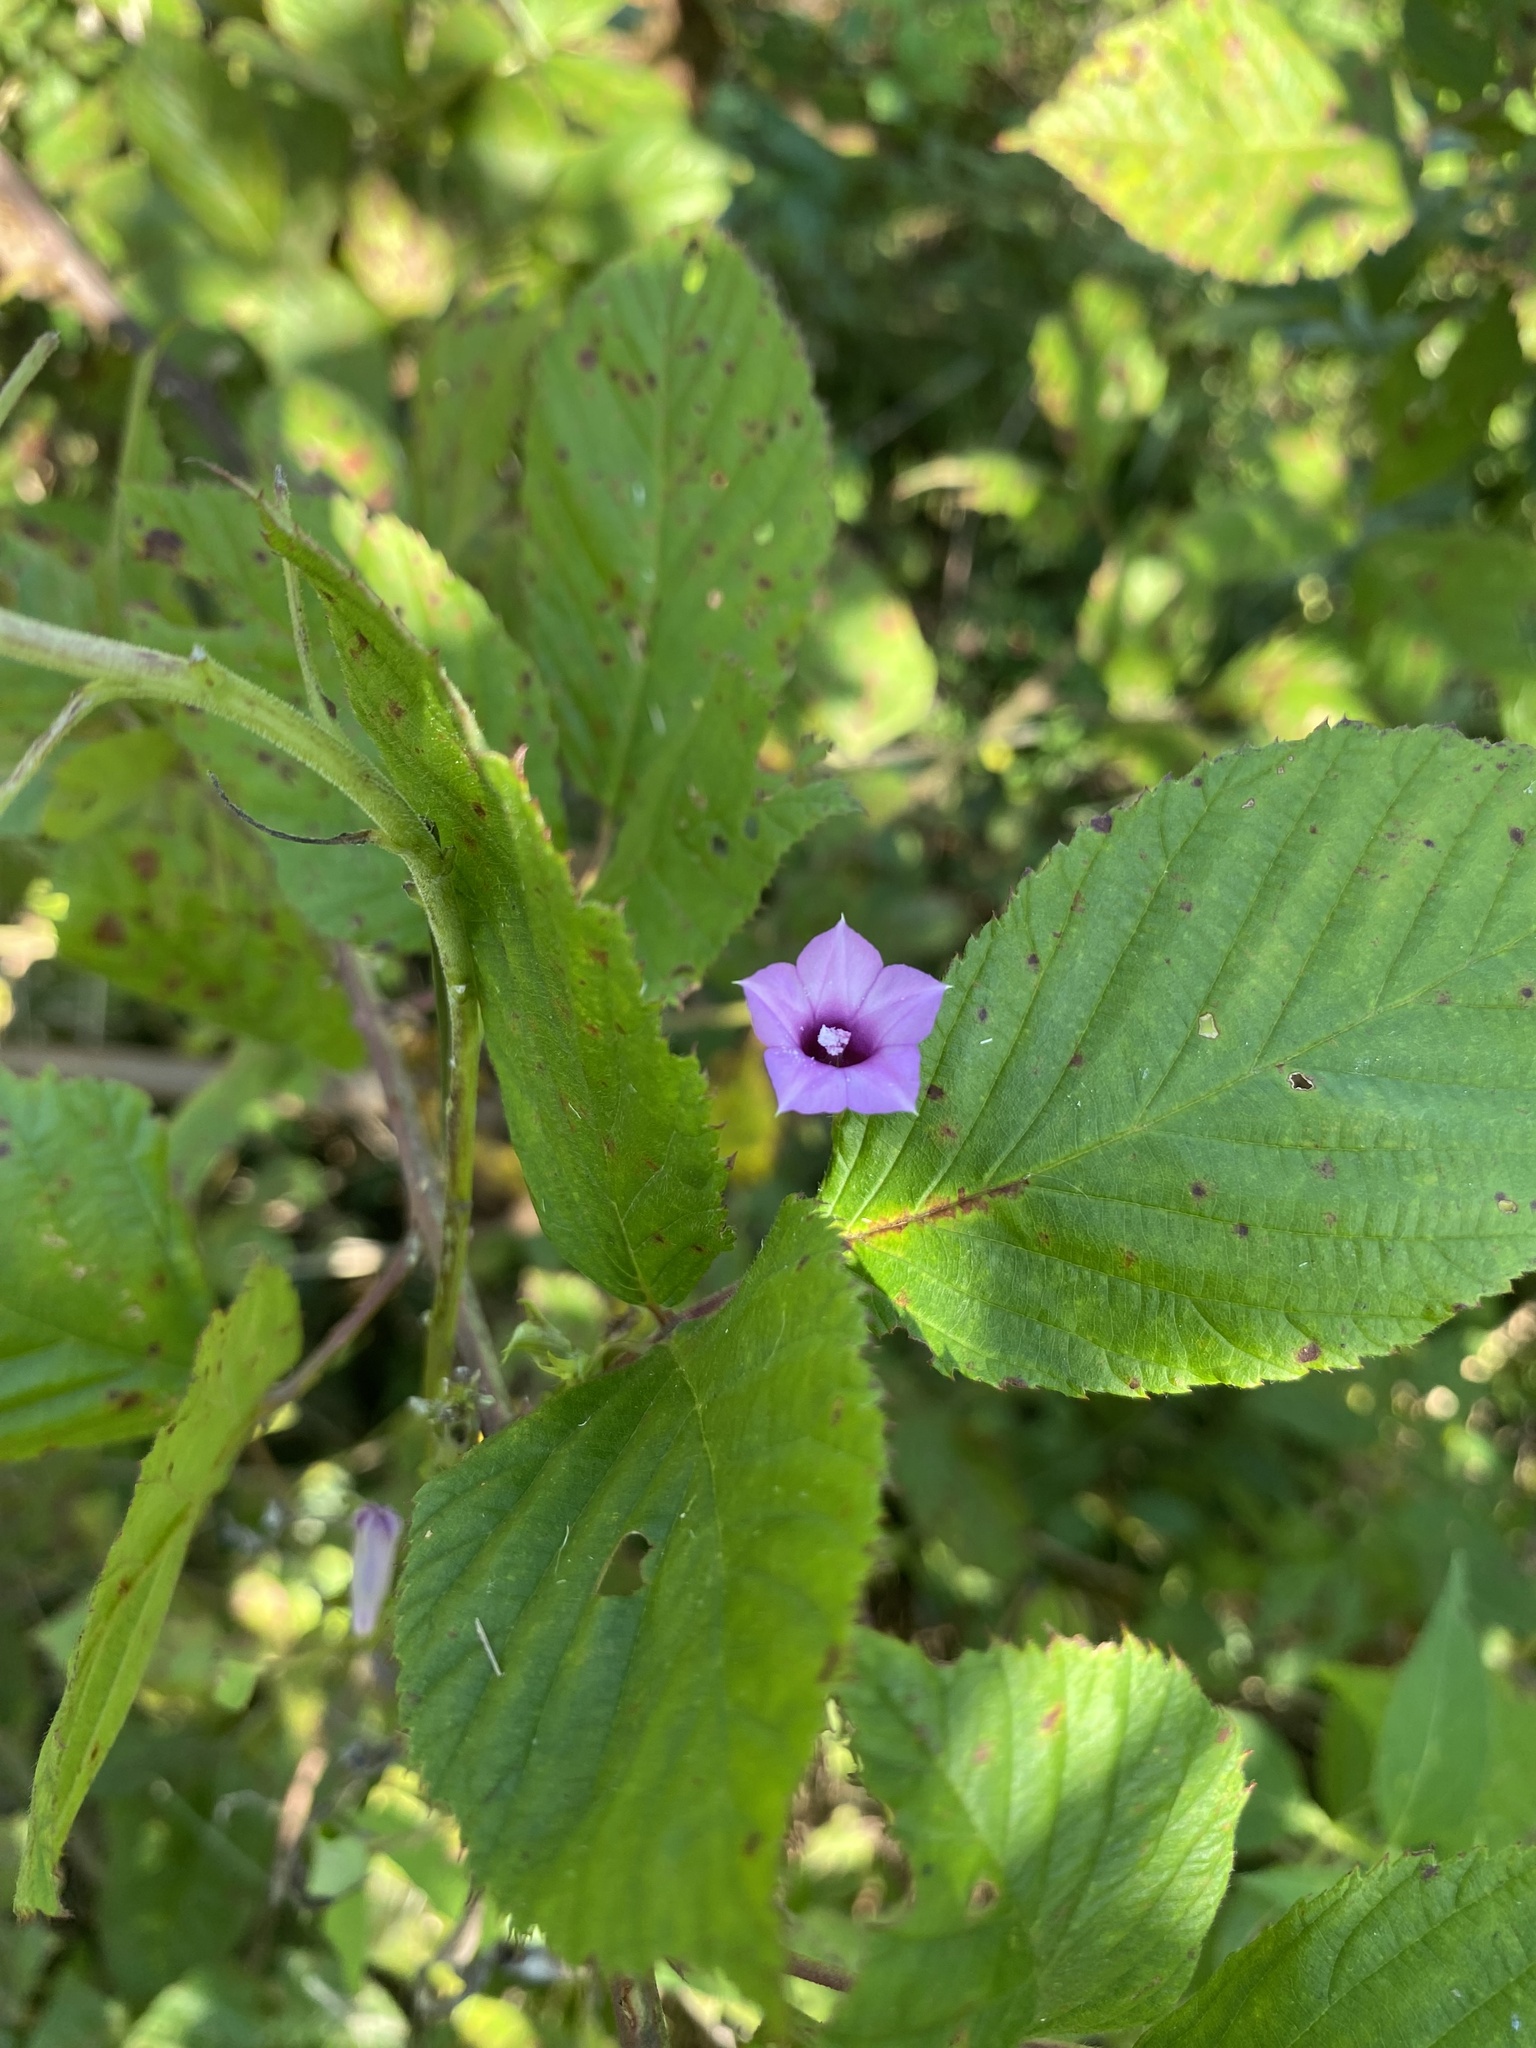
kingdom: Plantae
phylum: Tracheophyta
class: Magnoliopsida
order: Solanales
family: Convolvulaceae
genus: Ipomoea
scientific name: Ipomoea triloba
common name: Little-bell
